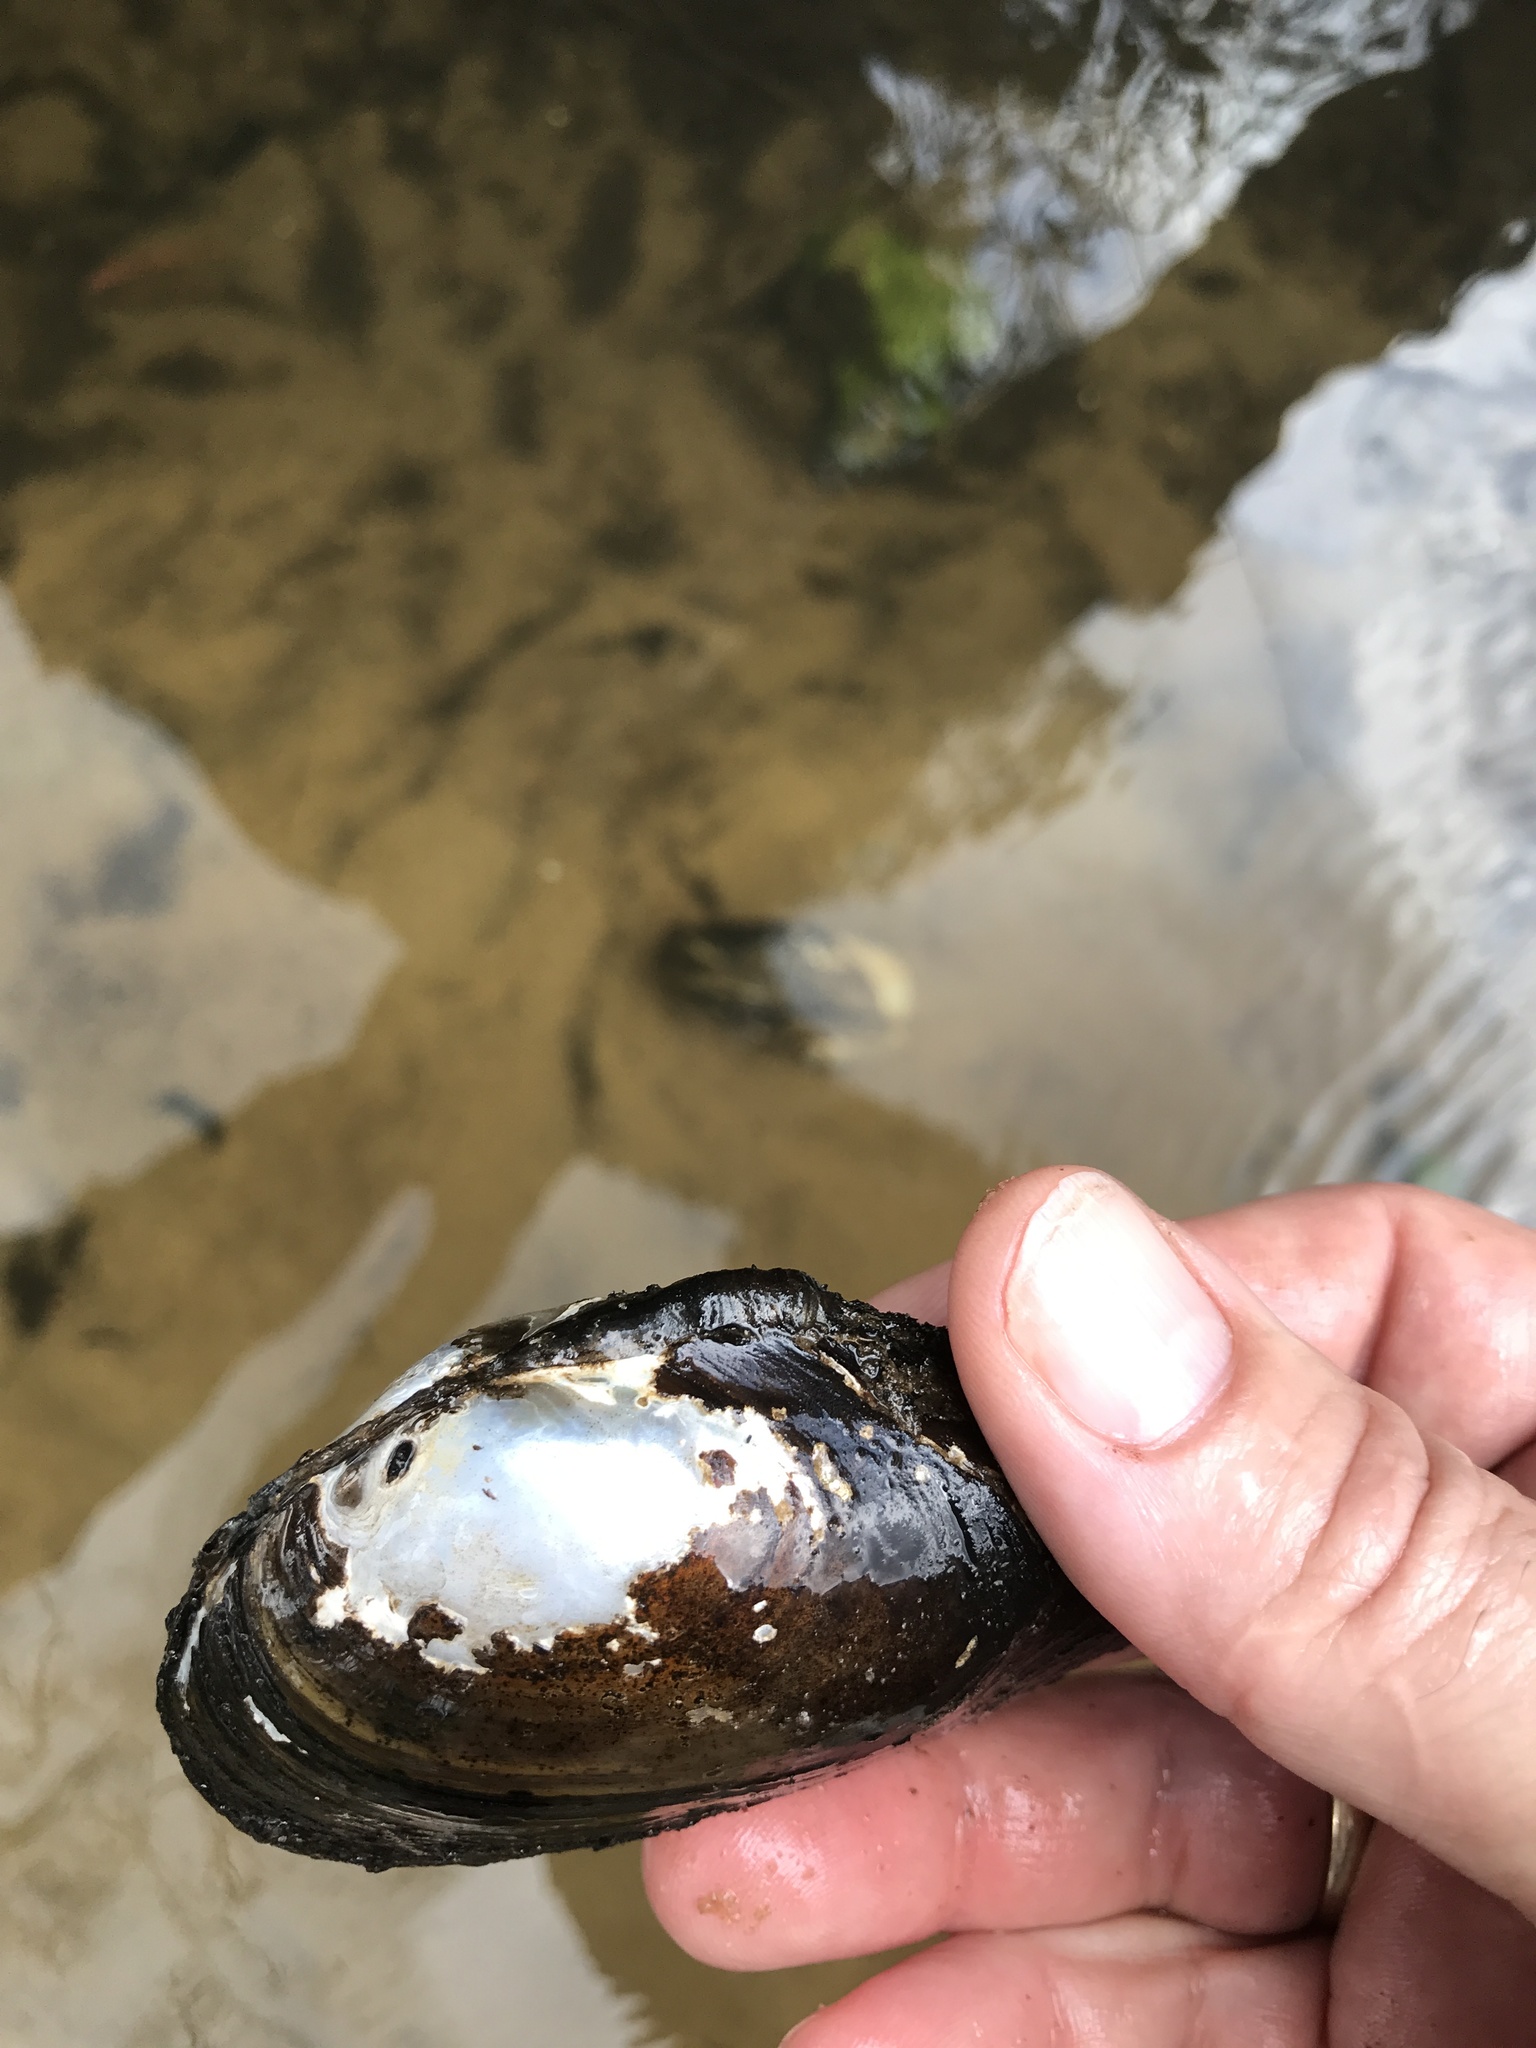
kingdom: Animalia
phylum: Mollusca
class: Bivalvia
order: Unionida
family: Unionidae
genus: Anodonta
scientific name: Anodonta anatina
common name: Duck mussel
